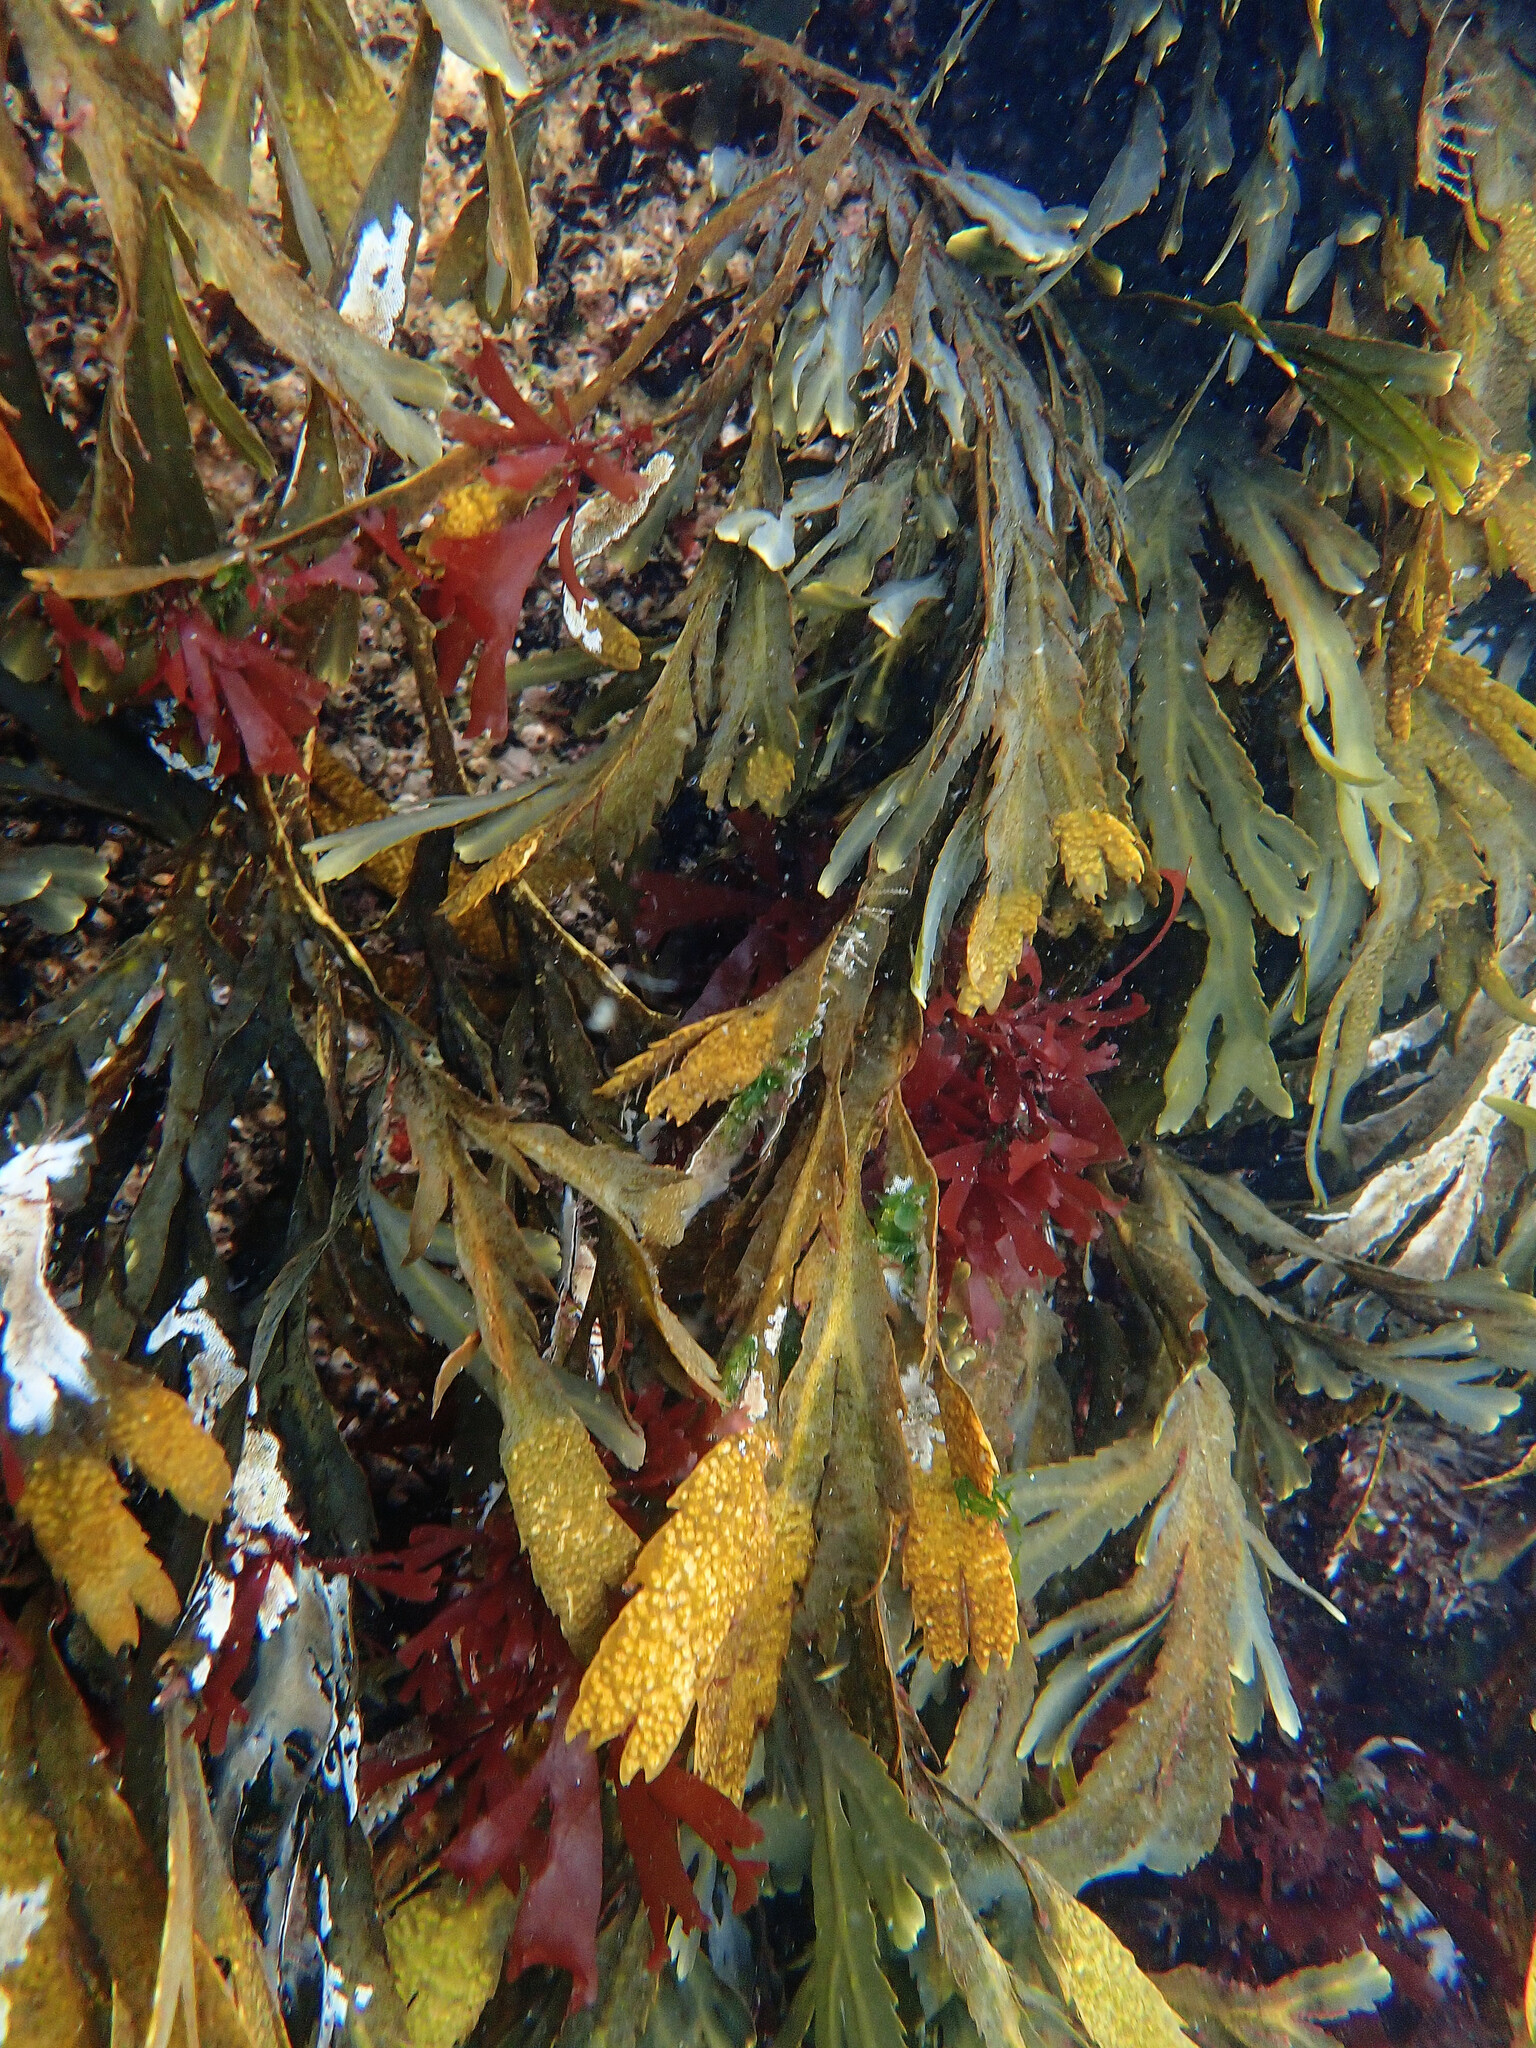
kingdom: Chromista
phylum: Ochrophyta
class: Phaeophyceae
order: Fucales
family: Fucaceae
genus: Fucus
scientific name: Fucus serratus
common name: Toothed wrack
